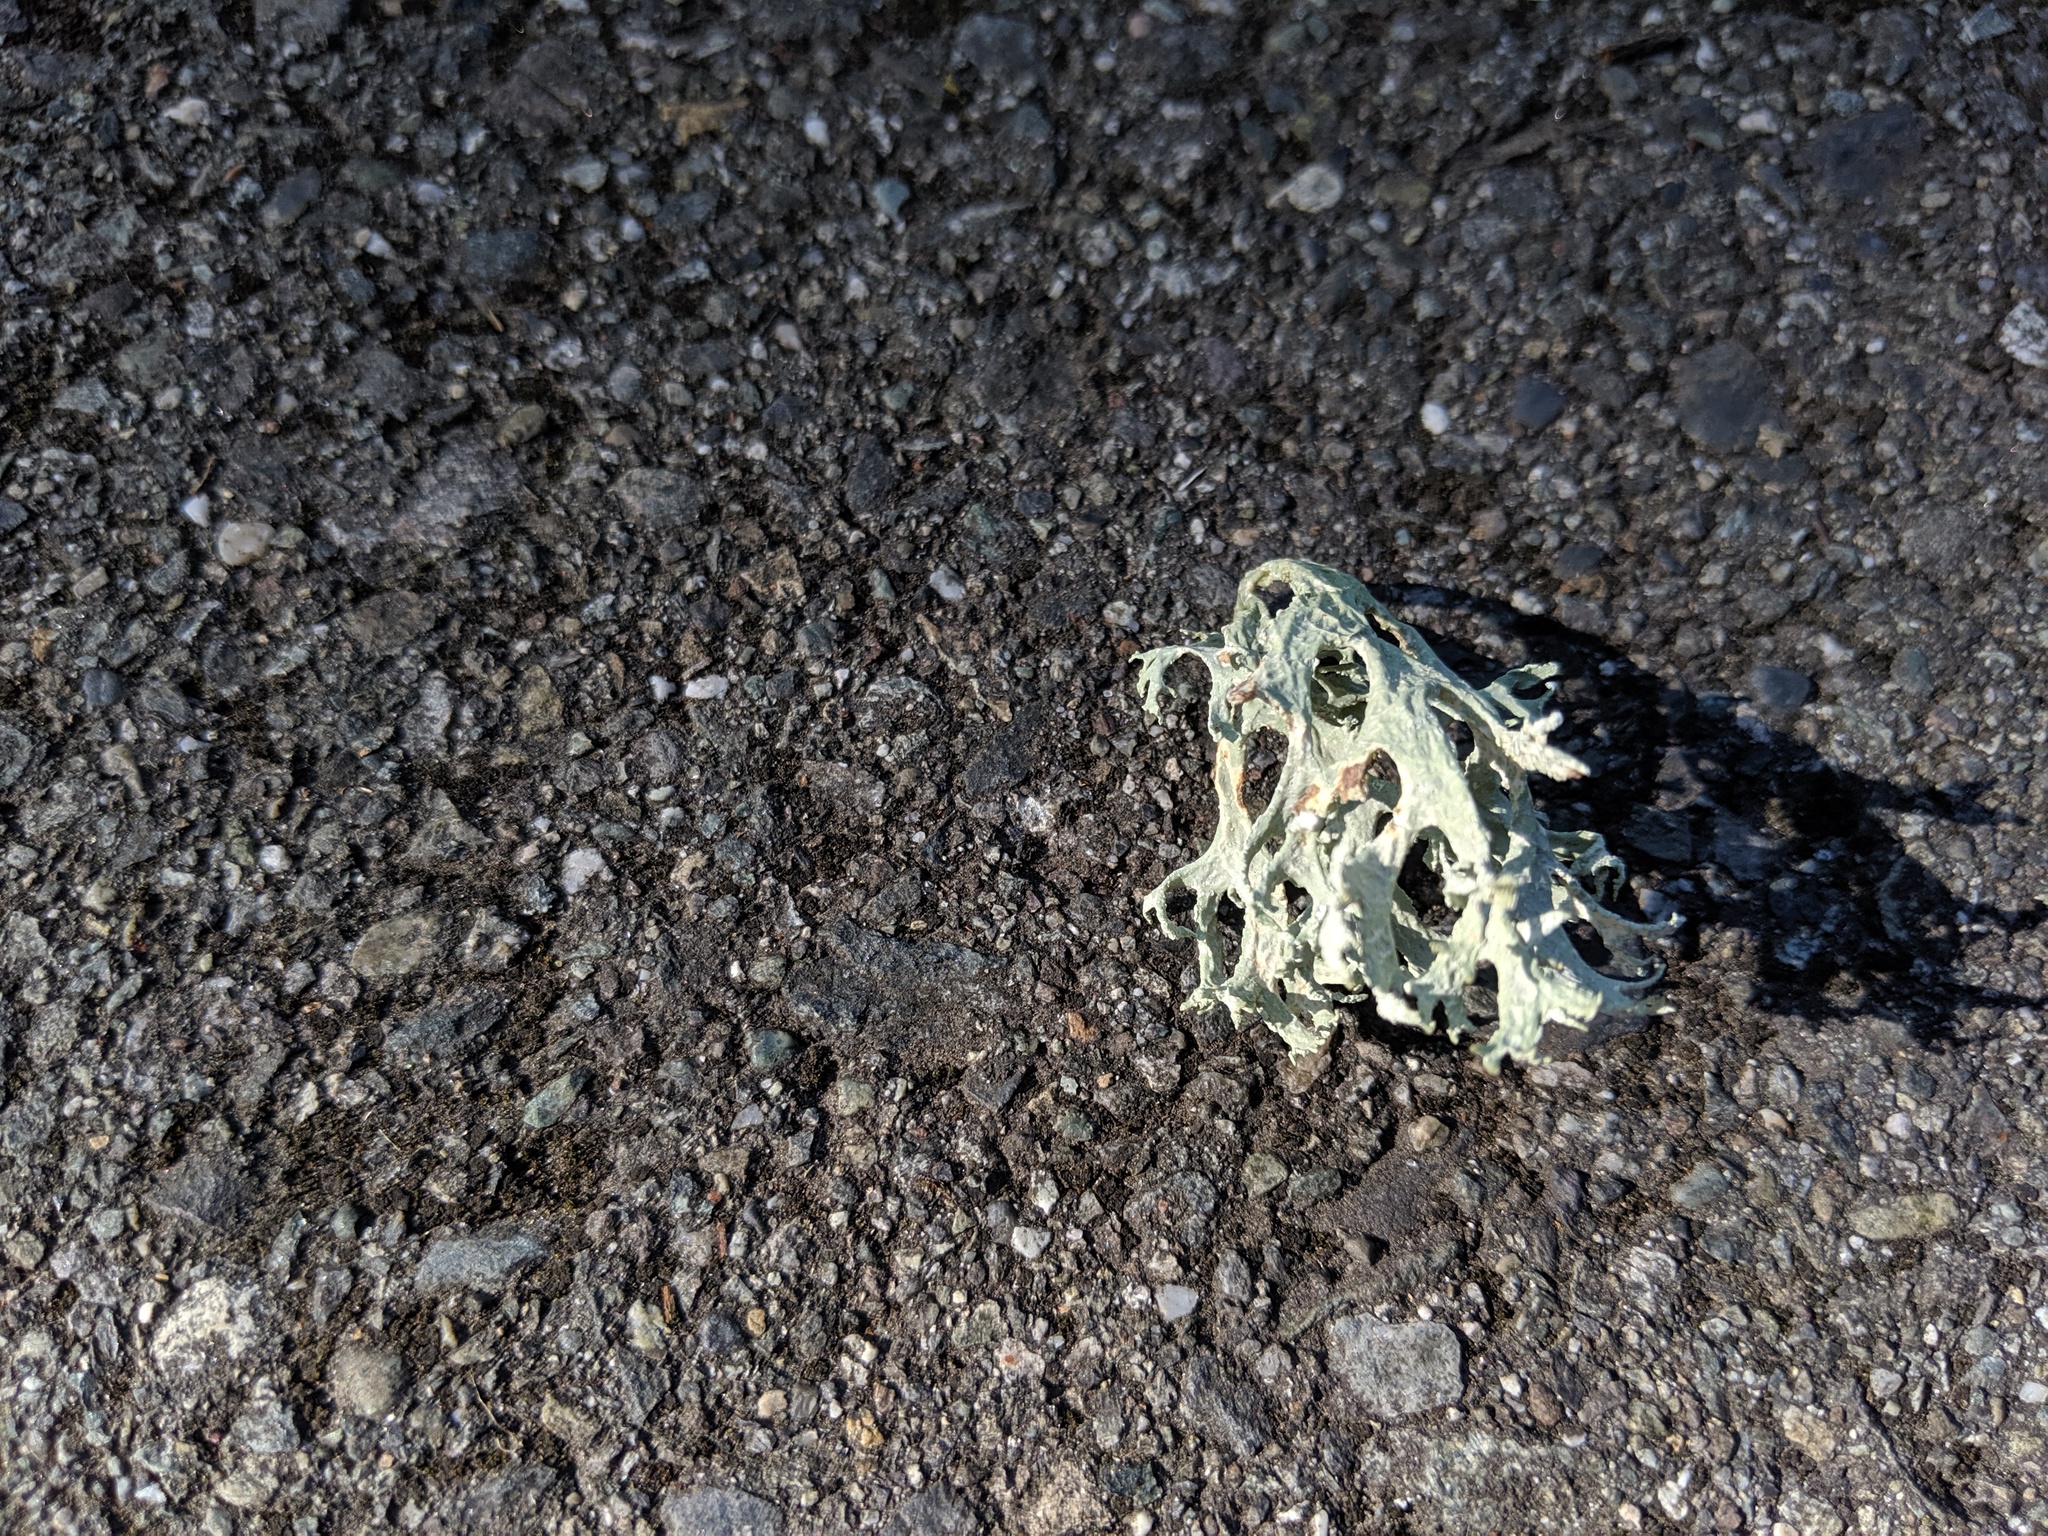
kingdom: Fungi
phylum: Ascomycota
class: Lecanoromycetes
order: Lecanorales
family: Parmeliaceae
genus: Evernia
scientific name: Evernia prunastri
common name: Oak moss
